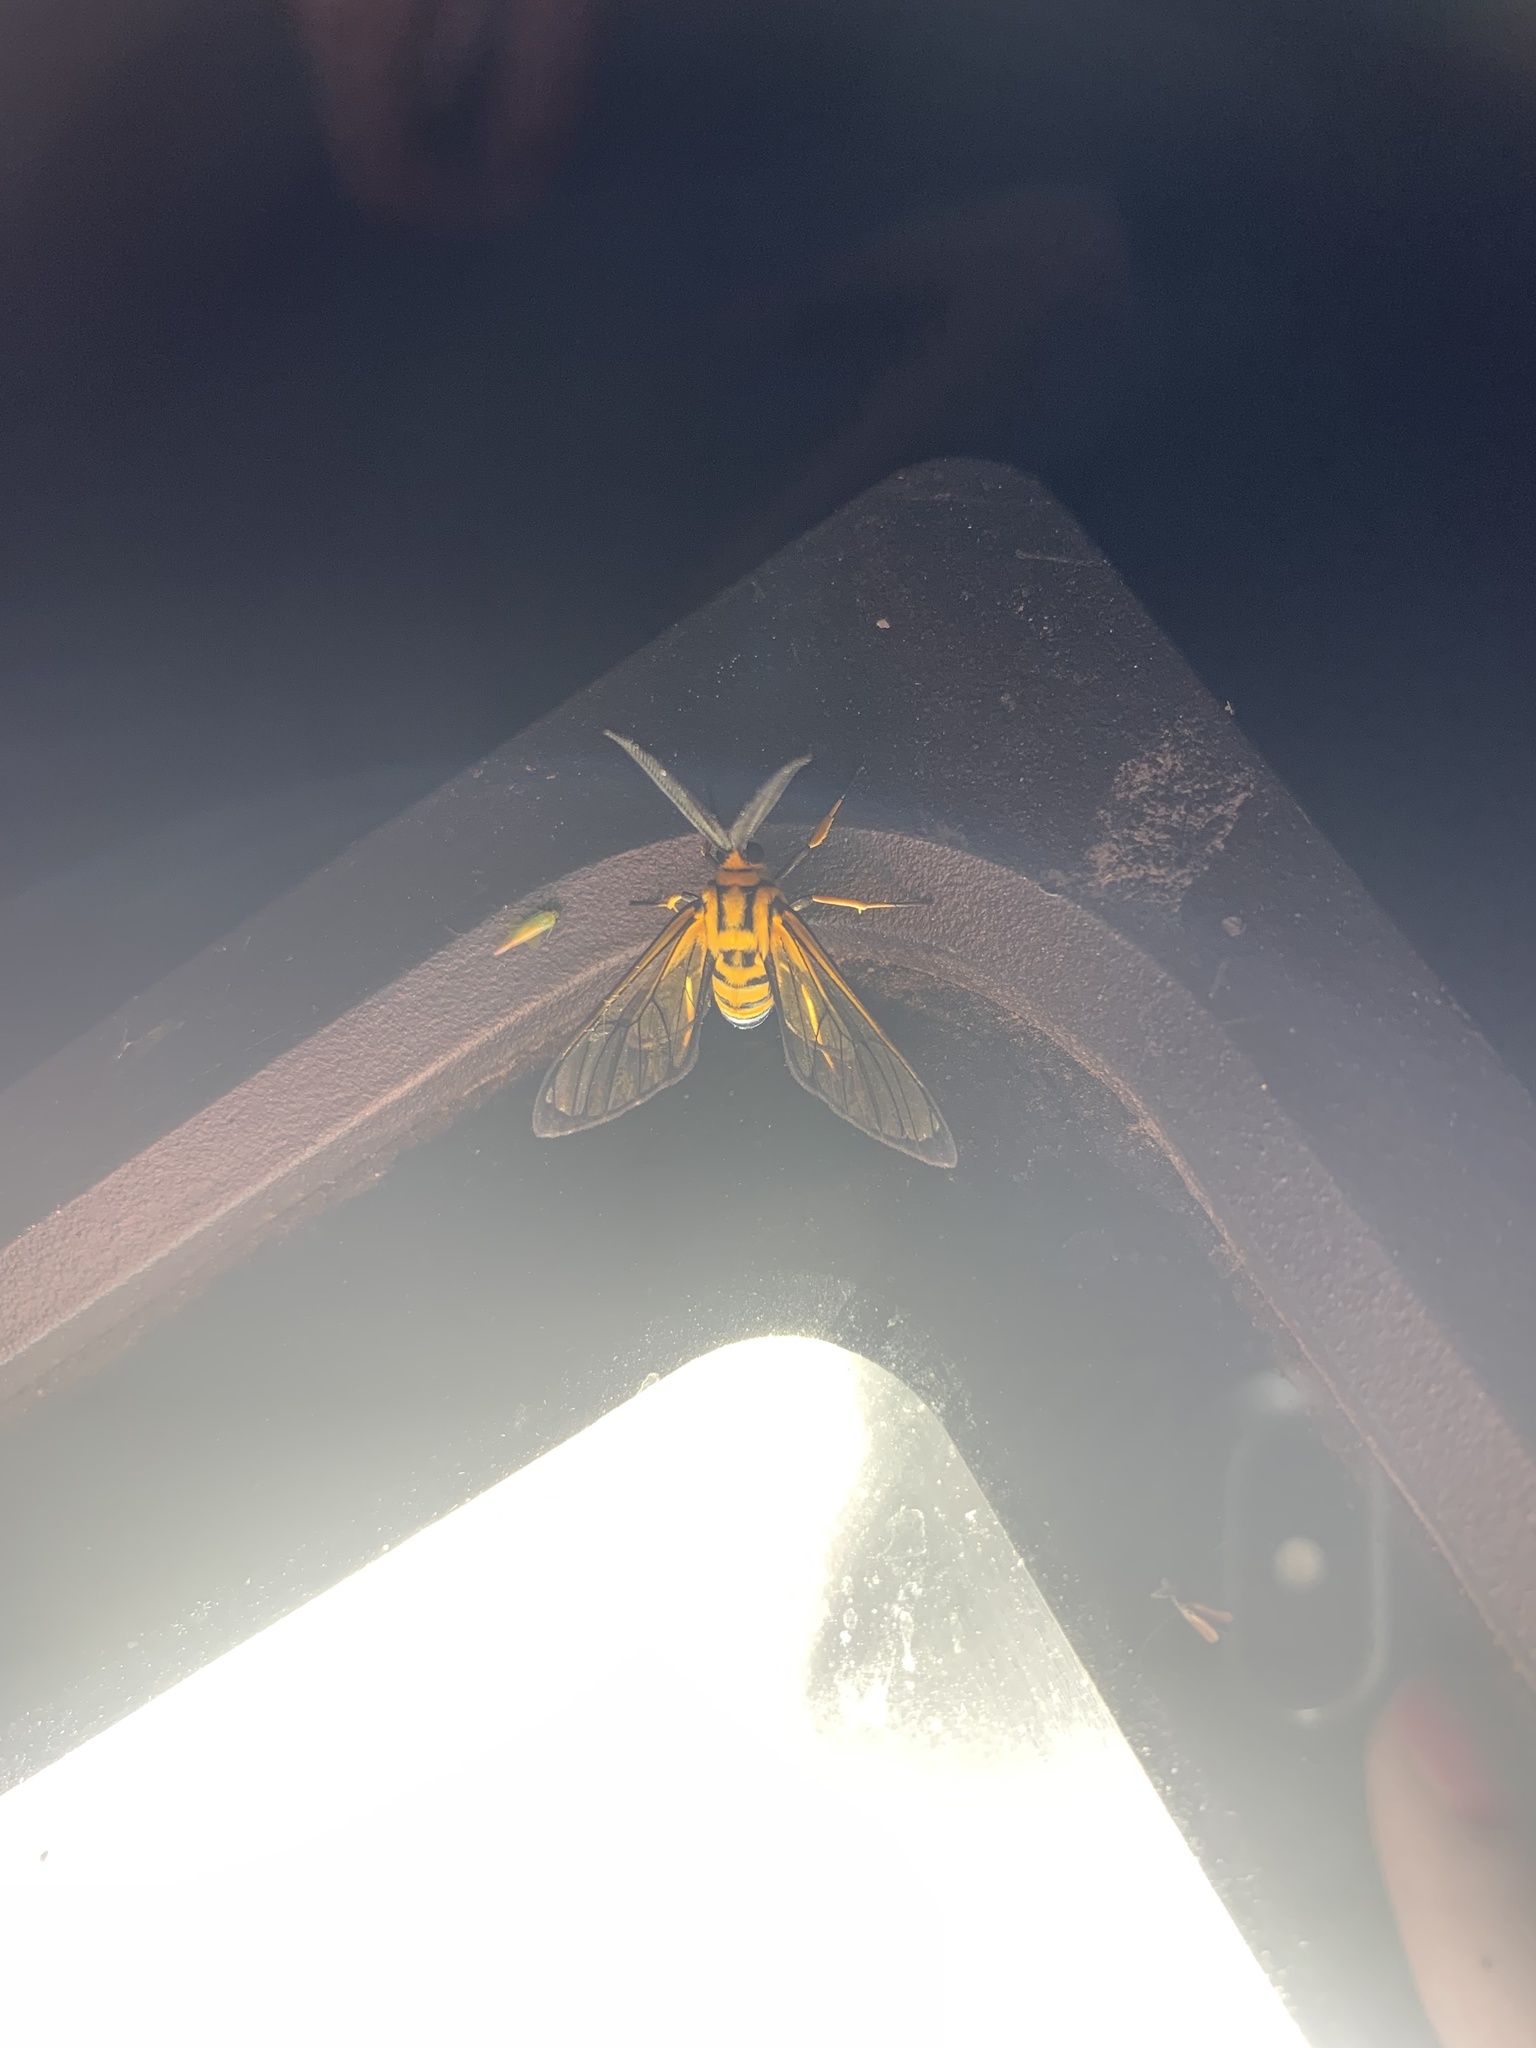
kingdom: Animalia
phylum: Arthropoda
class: Insecta
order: Lepidoptera
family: Erebidae
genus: Mesothen
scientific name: Mesothen nomia
